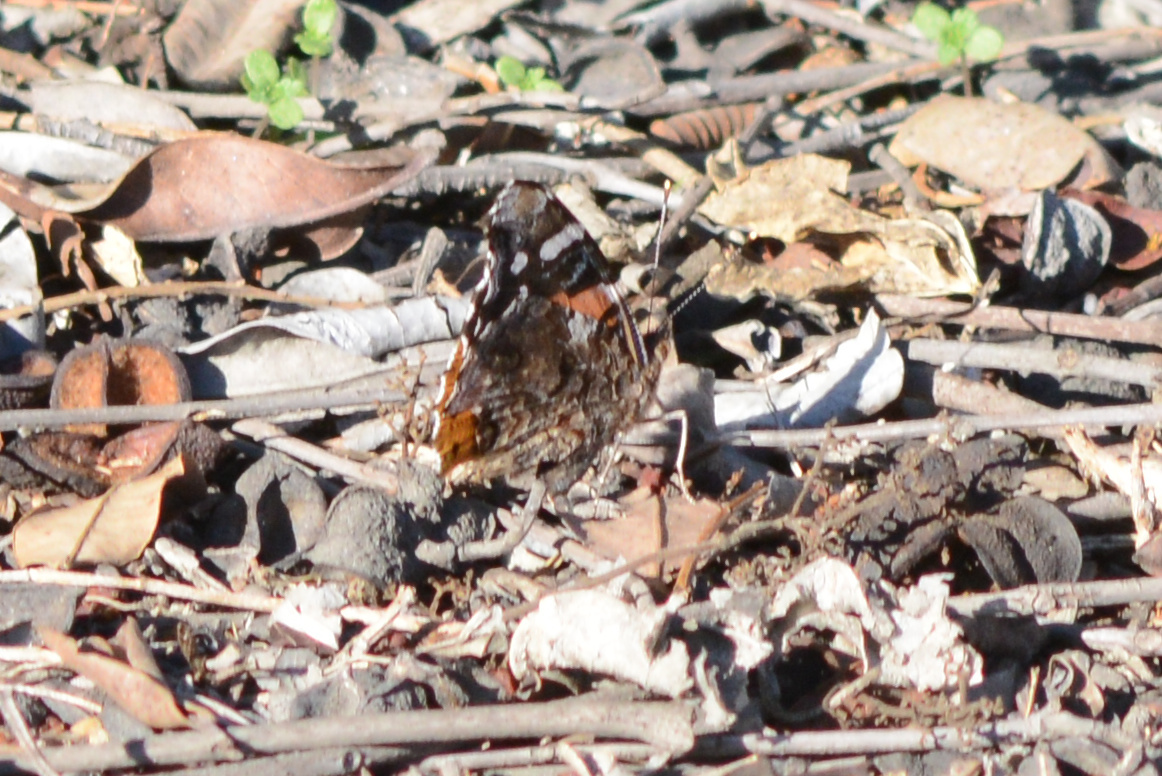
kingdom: Animalia
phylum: Arthropoda
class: Insecta
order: Lepidoptera
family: Nymphalidae
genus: Vanessa
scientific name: Vanessa atalanta
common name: Red admiral
